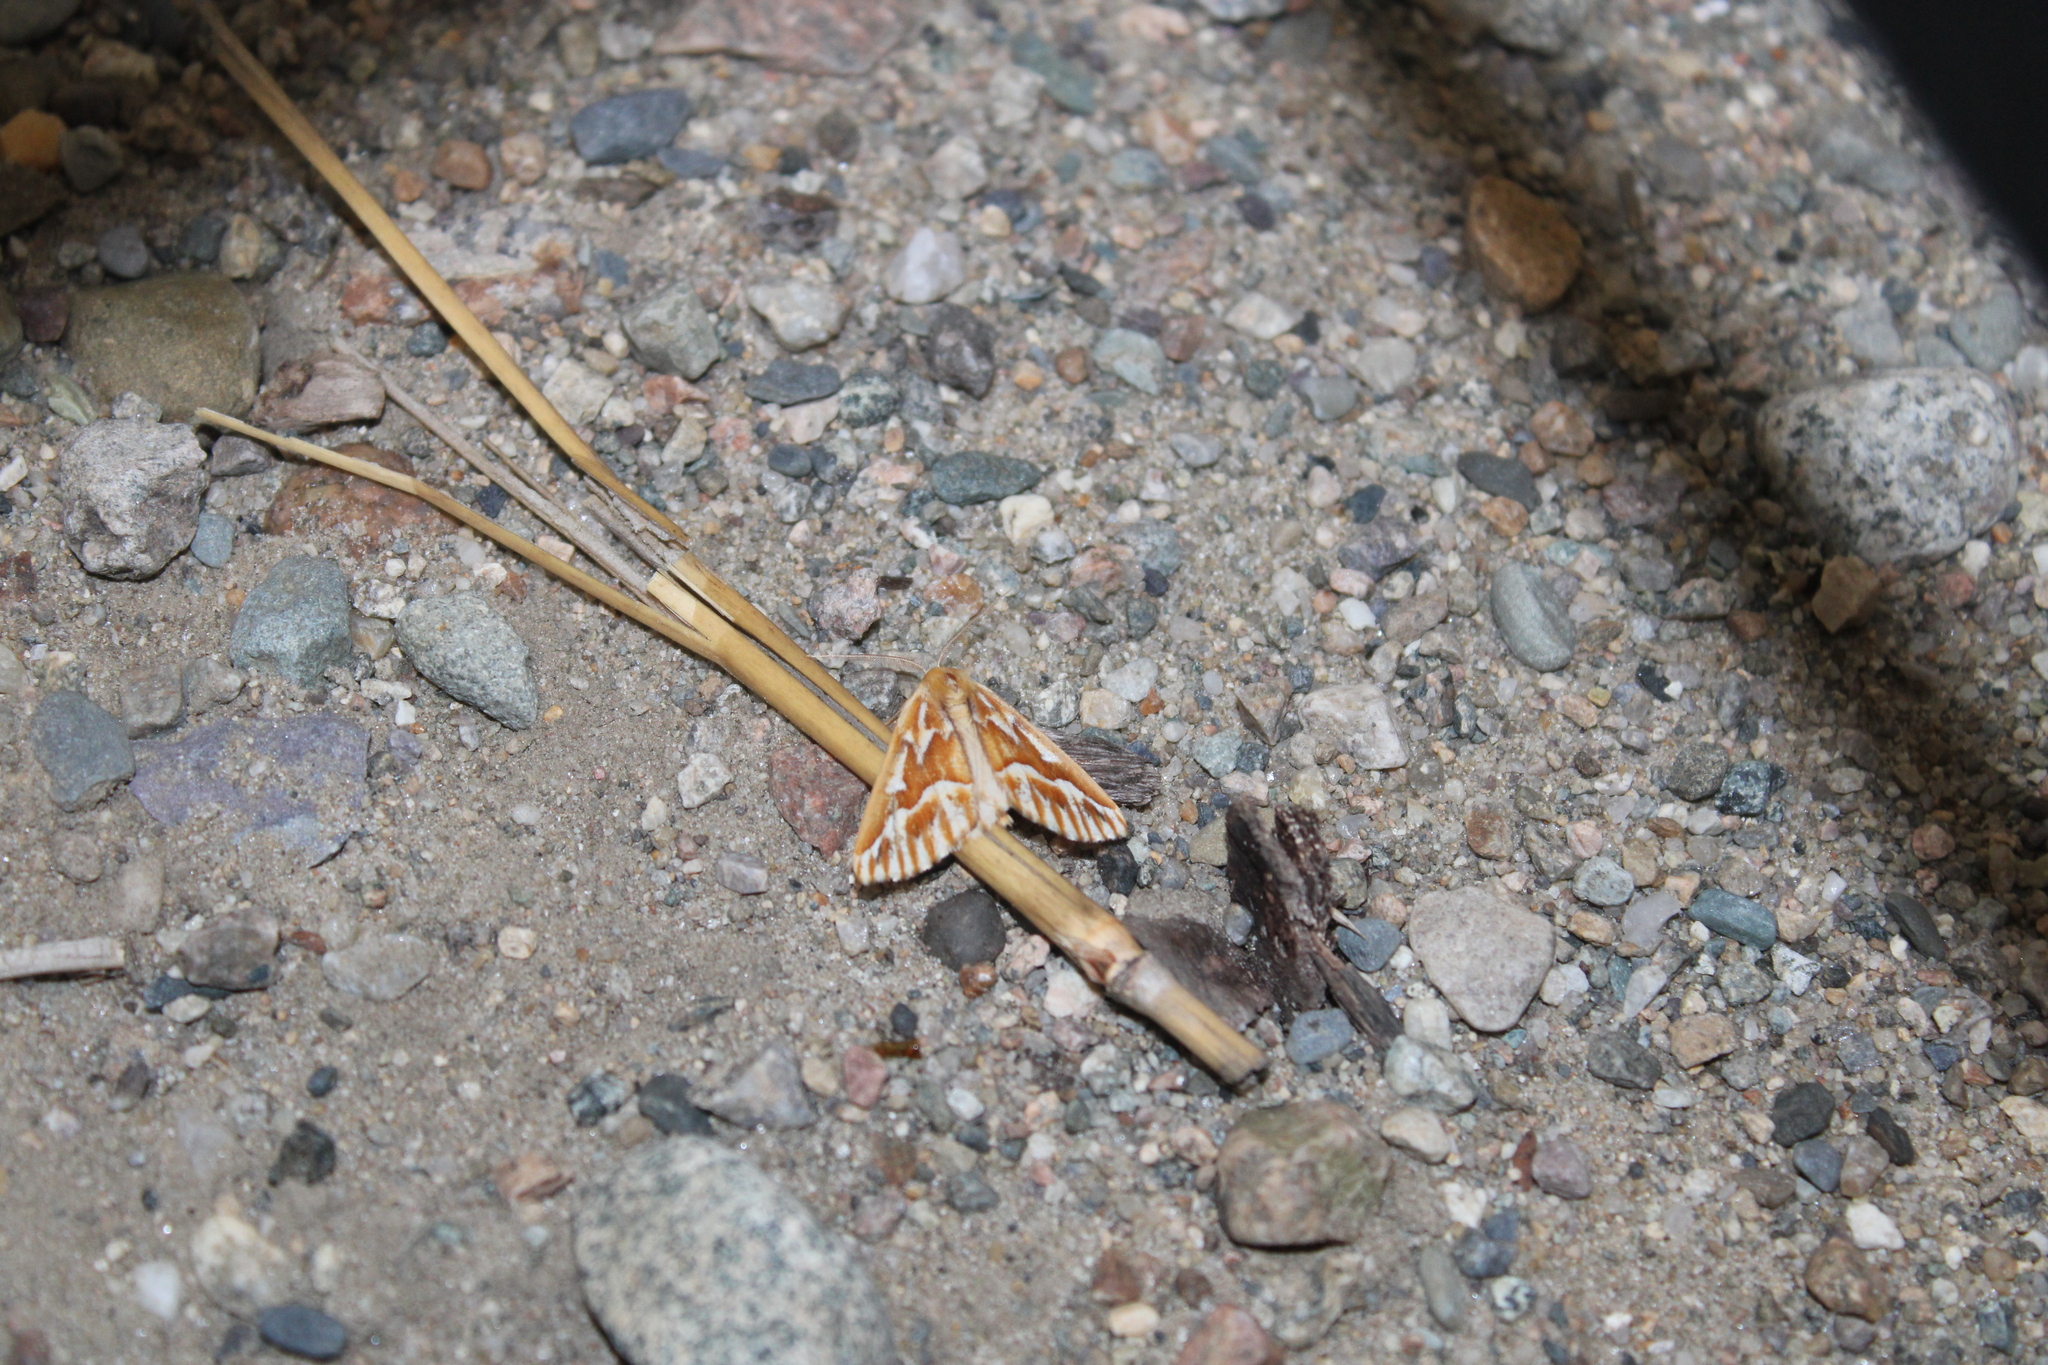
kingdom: Animalia
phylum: Arthropoda
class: Insecta
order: Lepidoptera
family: Geometridae
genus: Caripeta
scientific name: Caripeta piniata
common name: Northern pine looper moth
